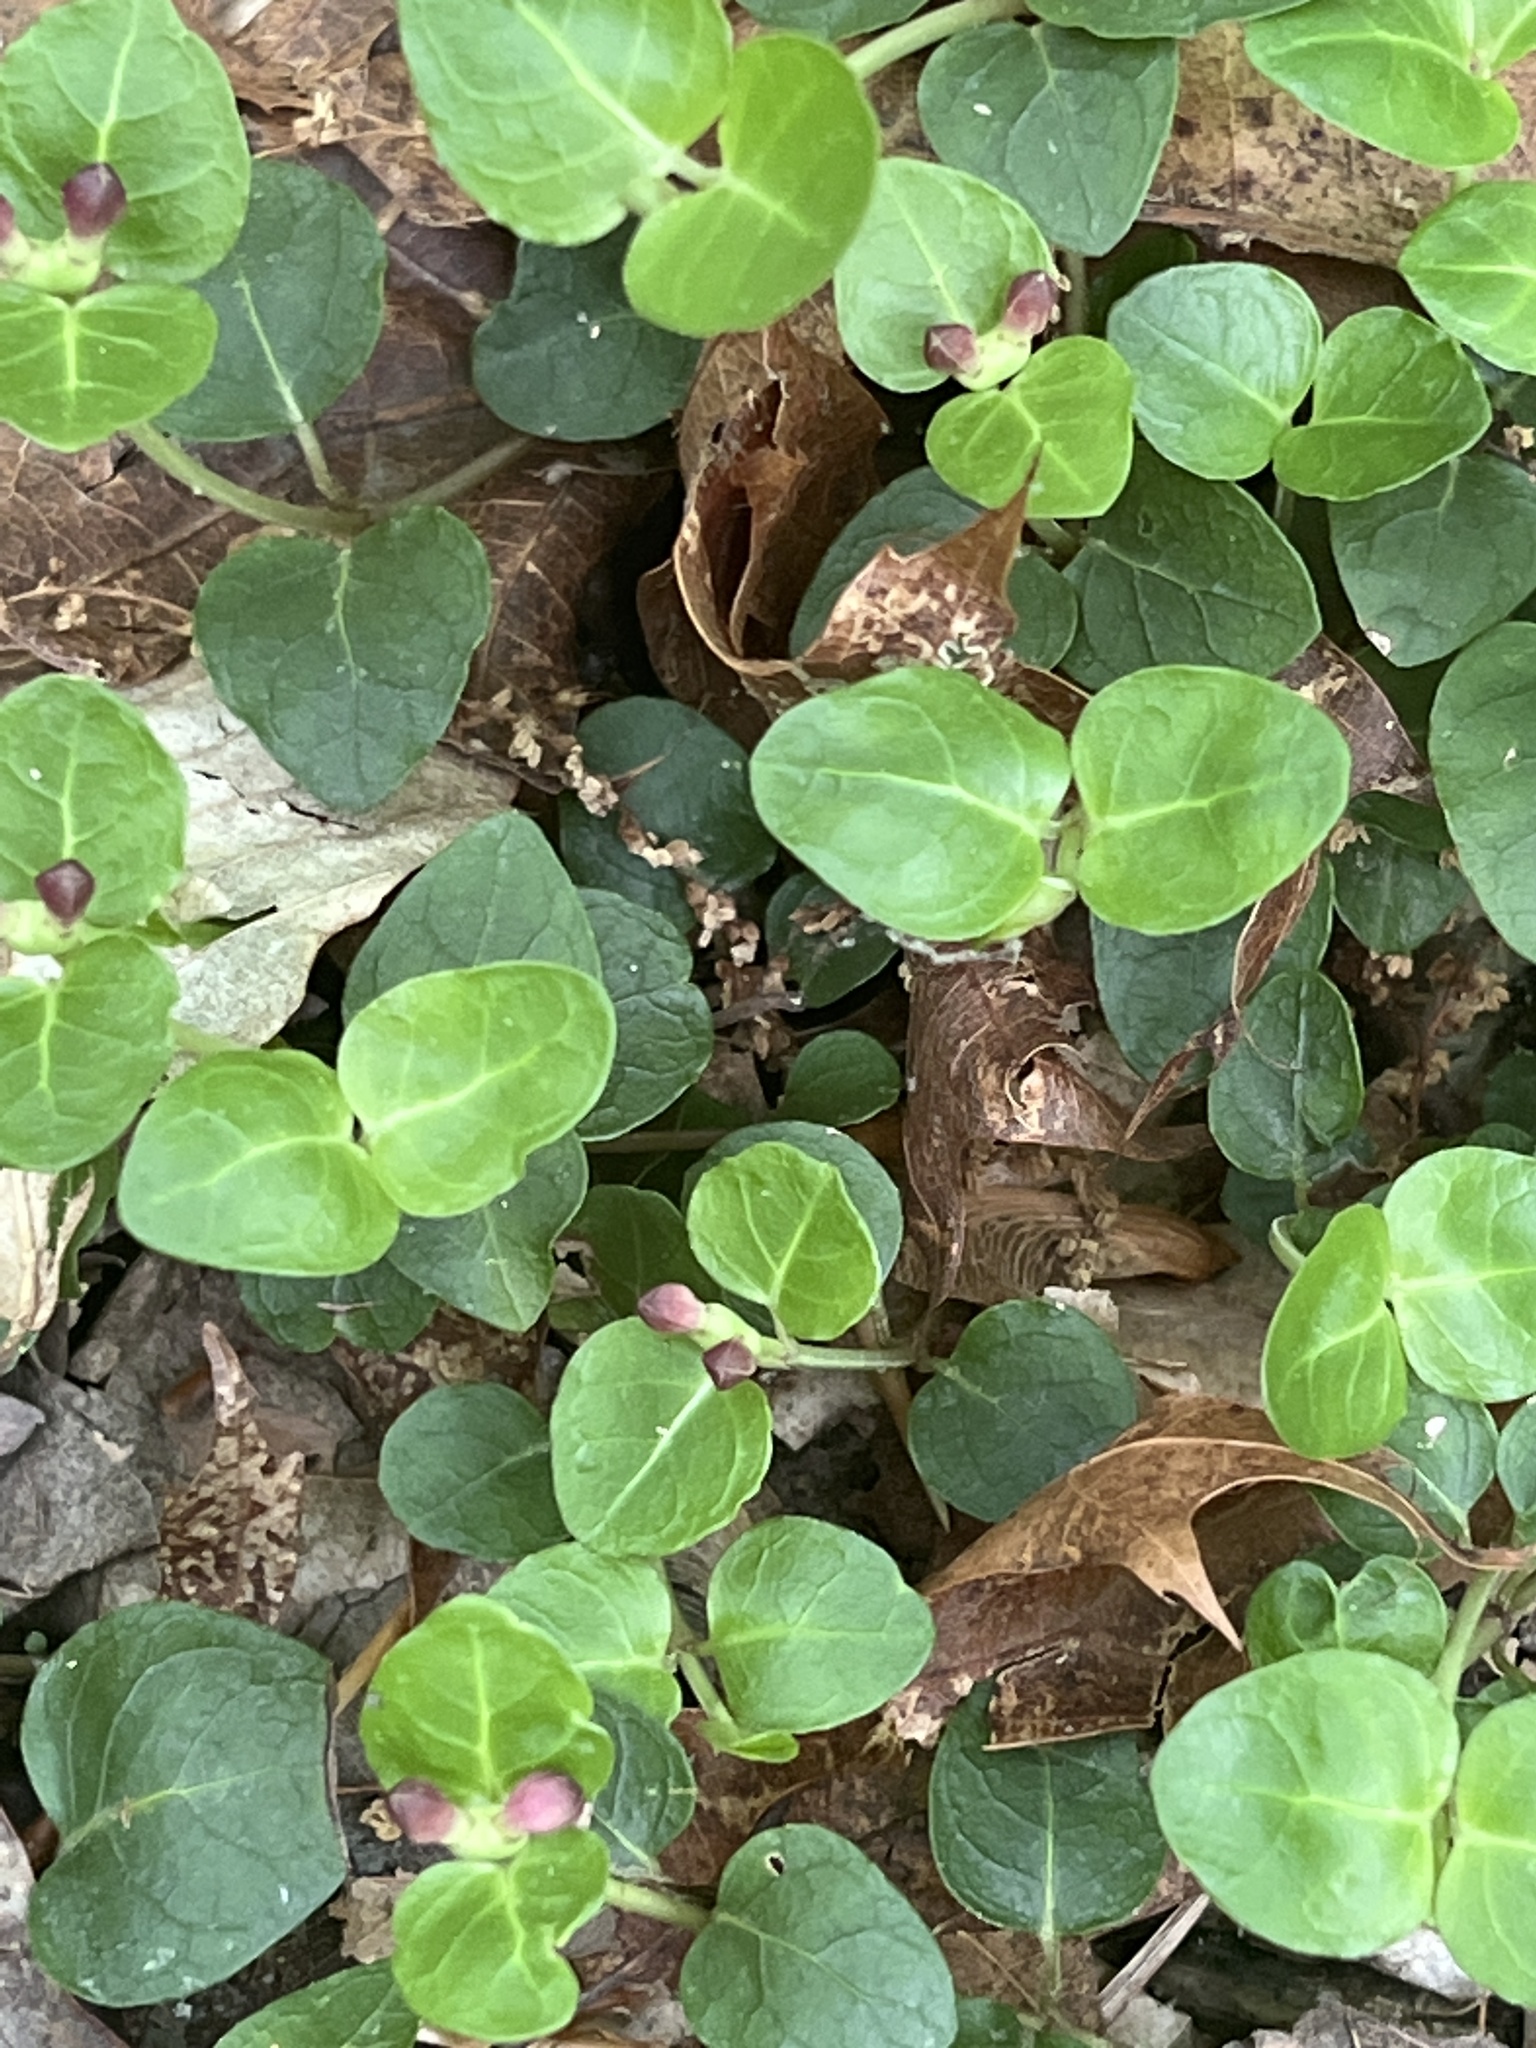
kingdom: Plantae
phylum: Tracheophyta
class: Magnoliopsida
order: Gentianales
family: Rubiaceae
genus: Mitchella
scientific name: Mitchella repens
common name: Partridge-berry
